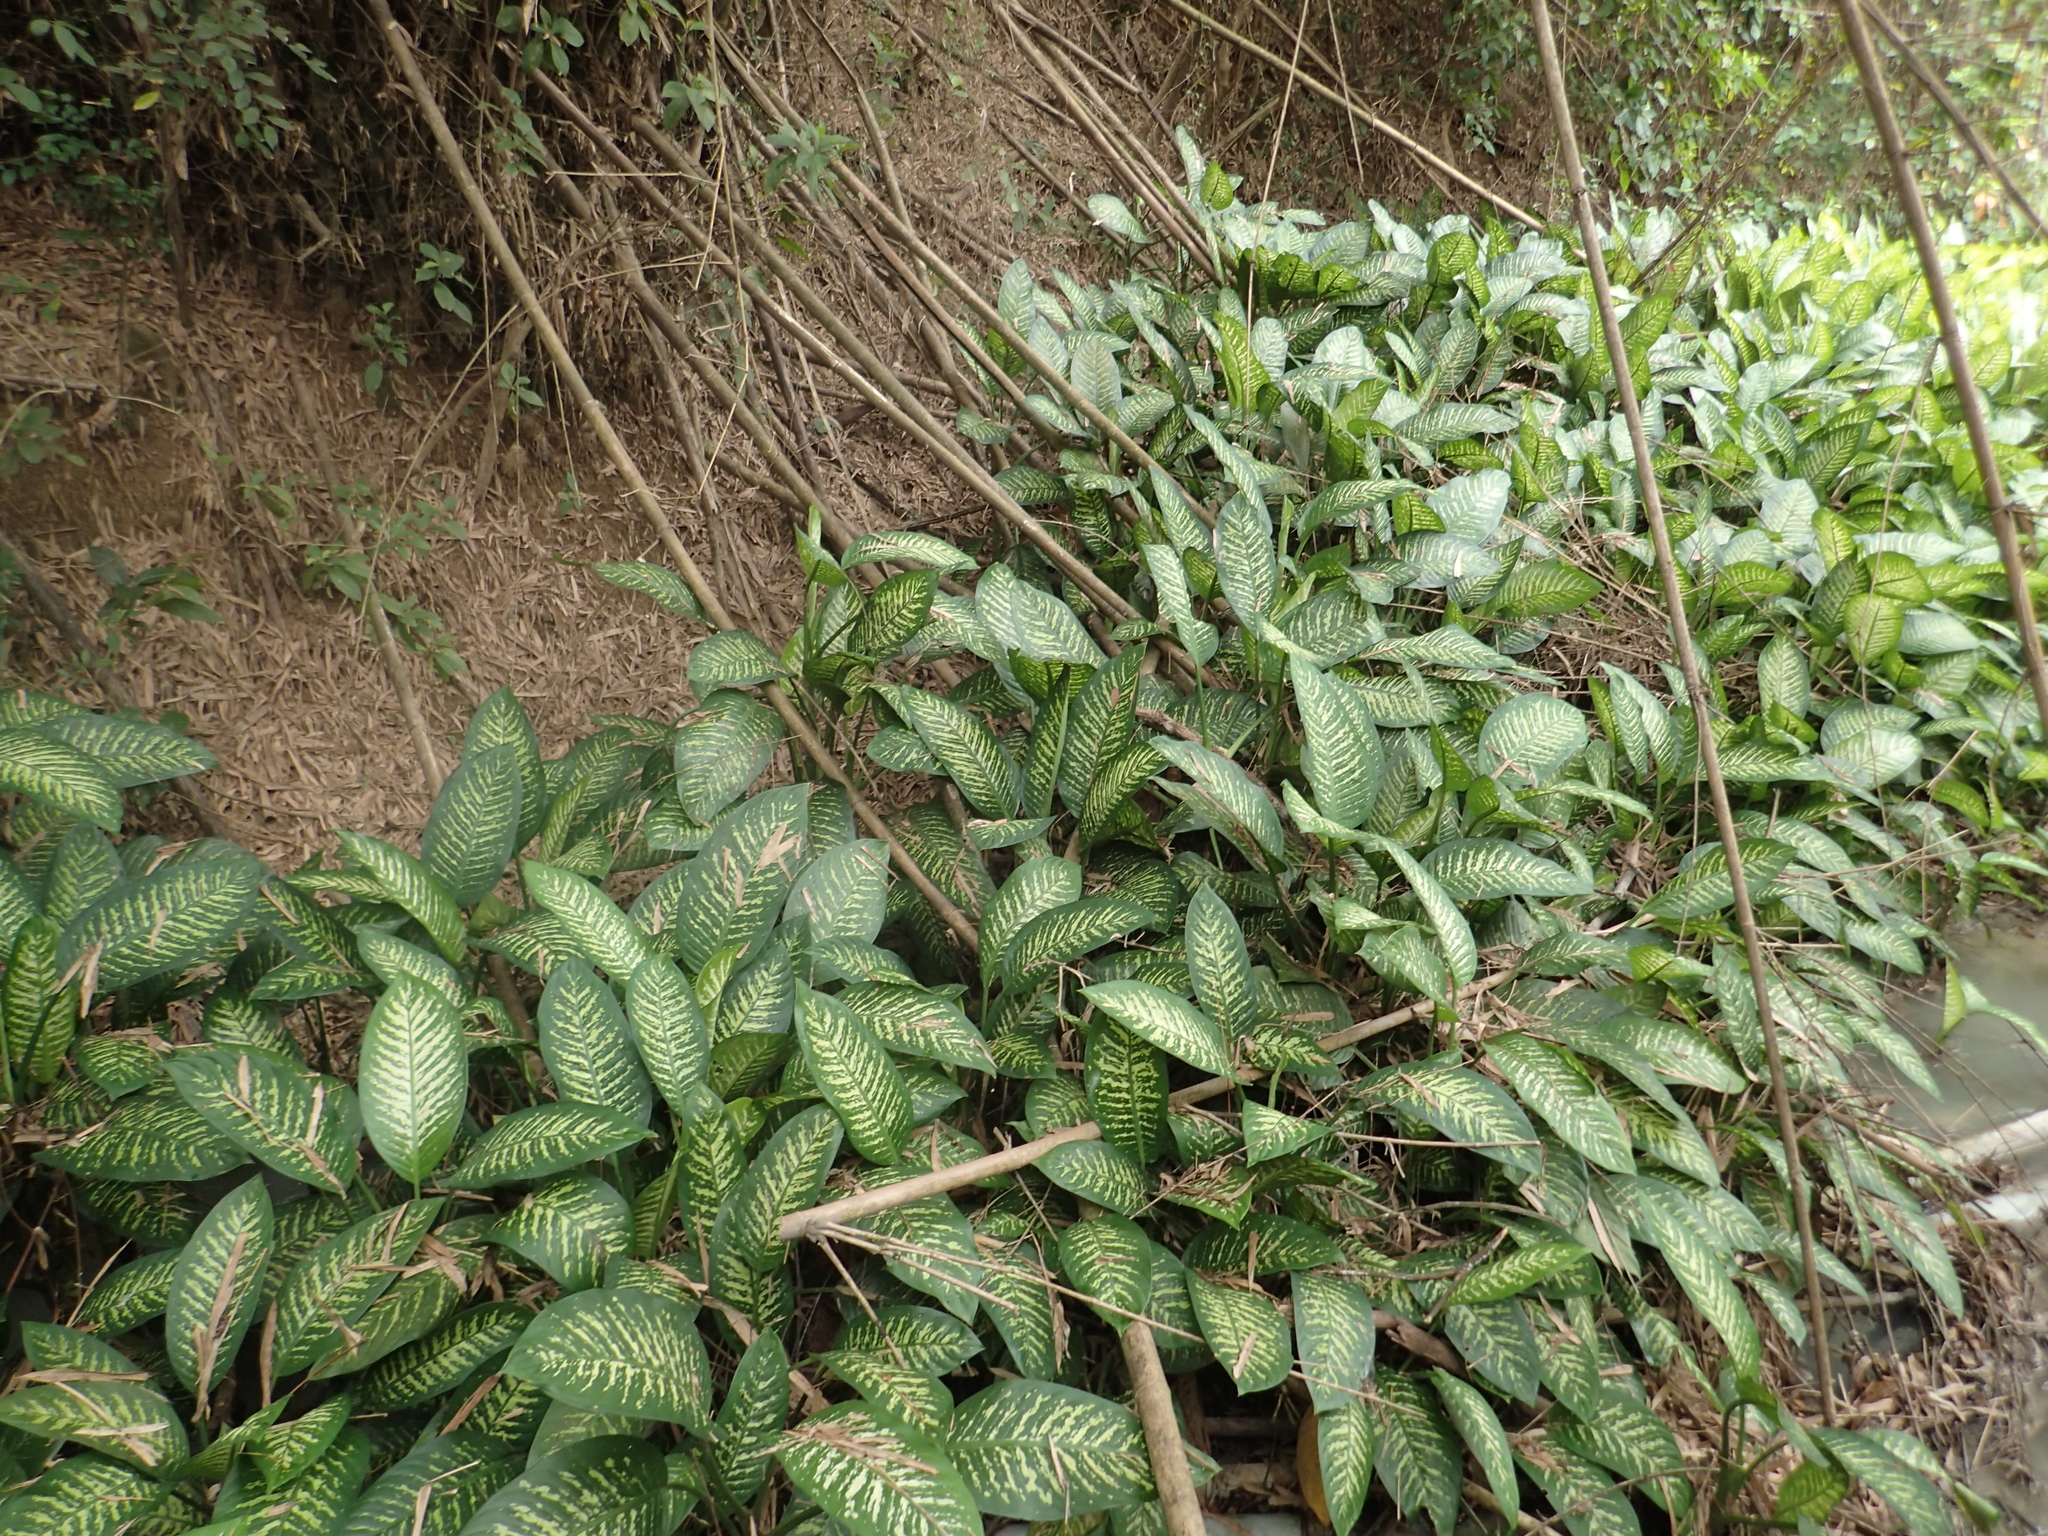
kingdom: Plantae
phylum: Tracheophyta
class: Liliopsida
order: Alismatales
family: Araceae
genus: Dieffenbachia
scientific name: Dieffenbachia seguine
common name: Dumbcane
